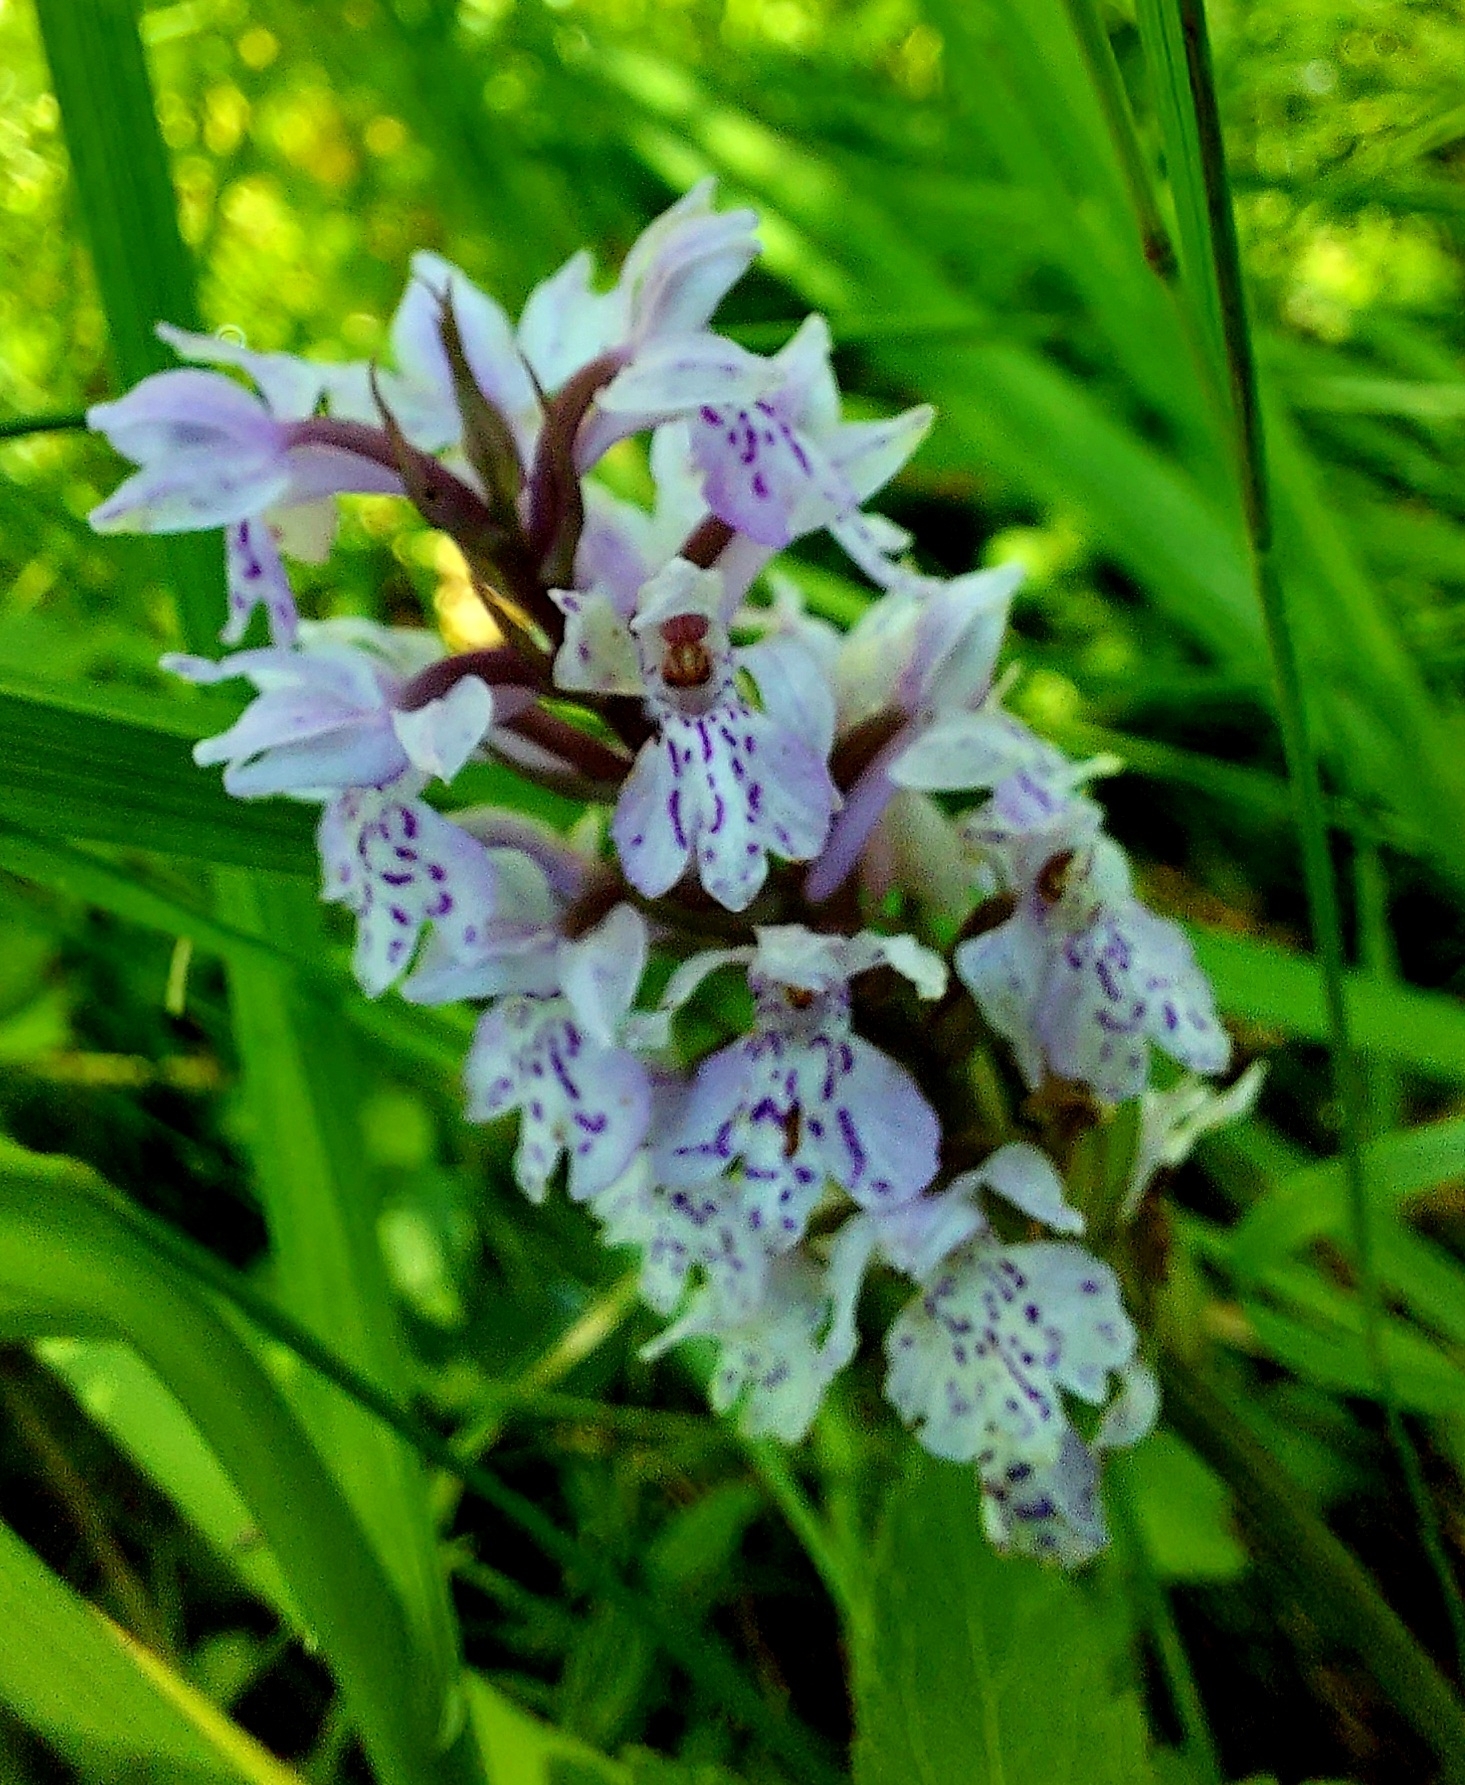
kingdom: Plantae
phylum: Tracheophyta
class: Liliopsida
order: Asparagales
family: Orchidaceae
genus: Dactylorhiza
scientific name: Dactylorhiza maculata
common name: Heath spotted-orchid
